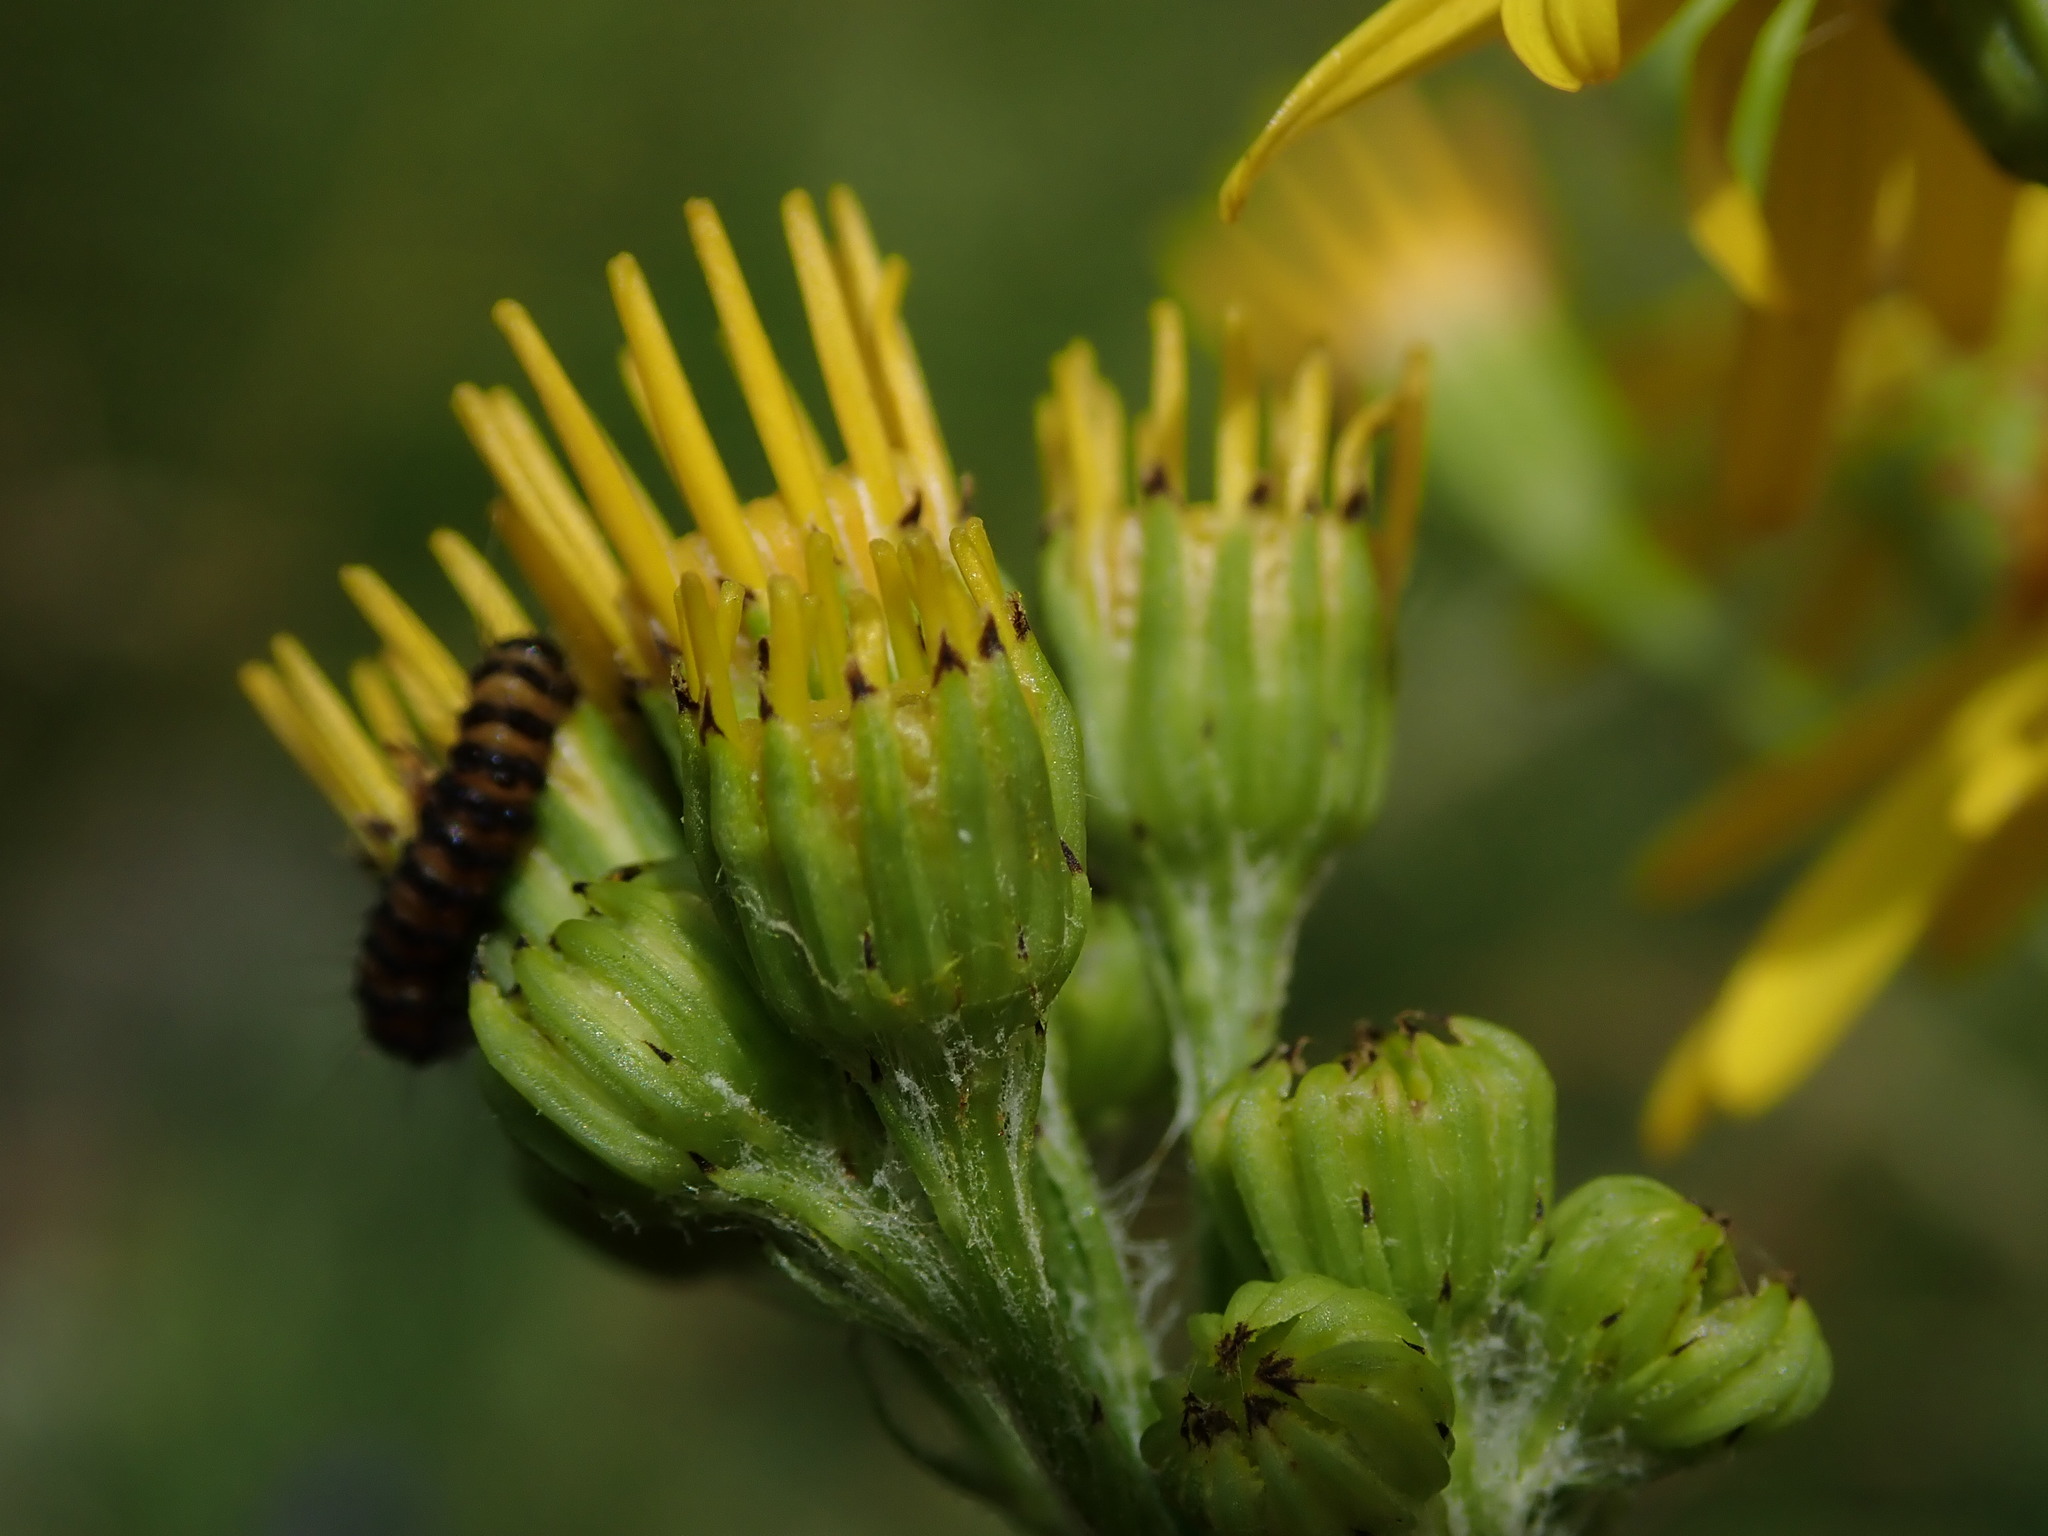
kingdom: Animalia
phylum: Arthropoda
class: Insecta
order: Lepidoptera
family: Erebidae
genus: Tyria
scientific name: Tyria jacobaeae
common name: Cinnabar
